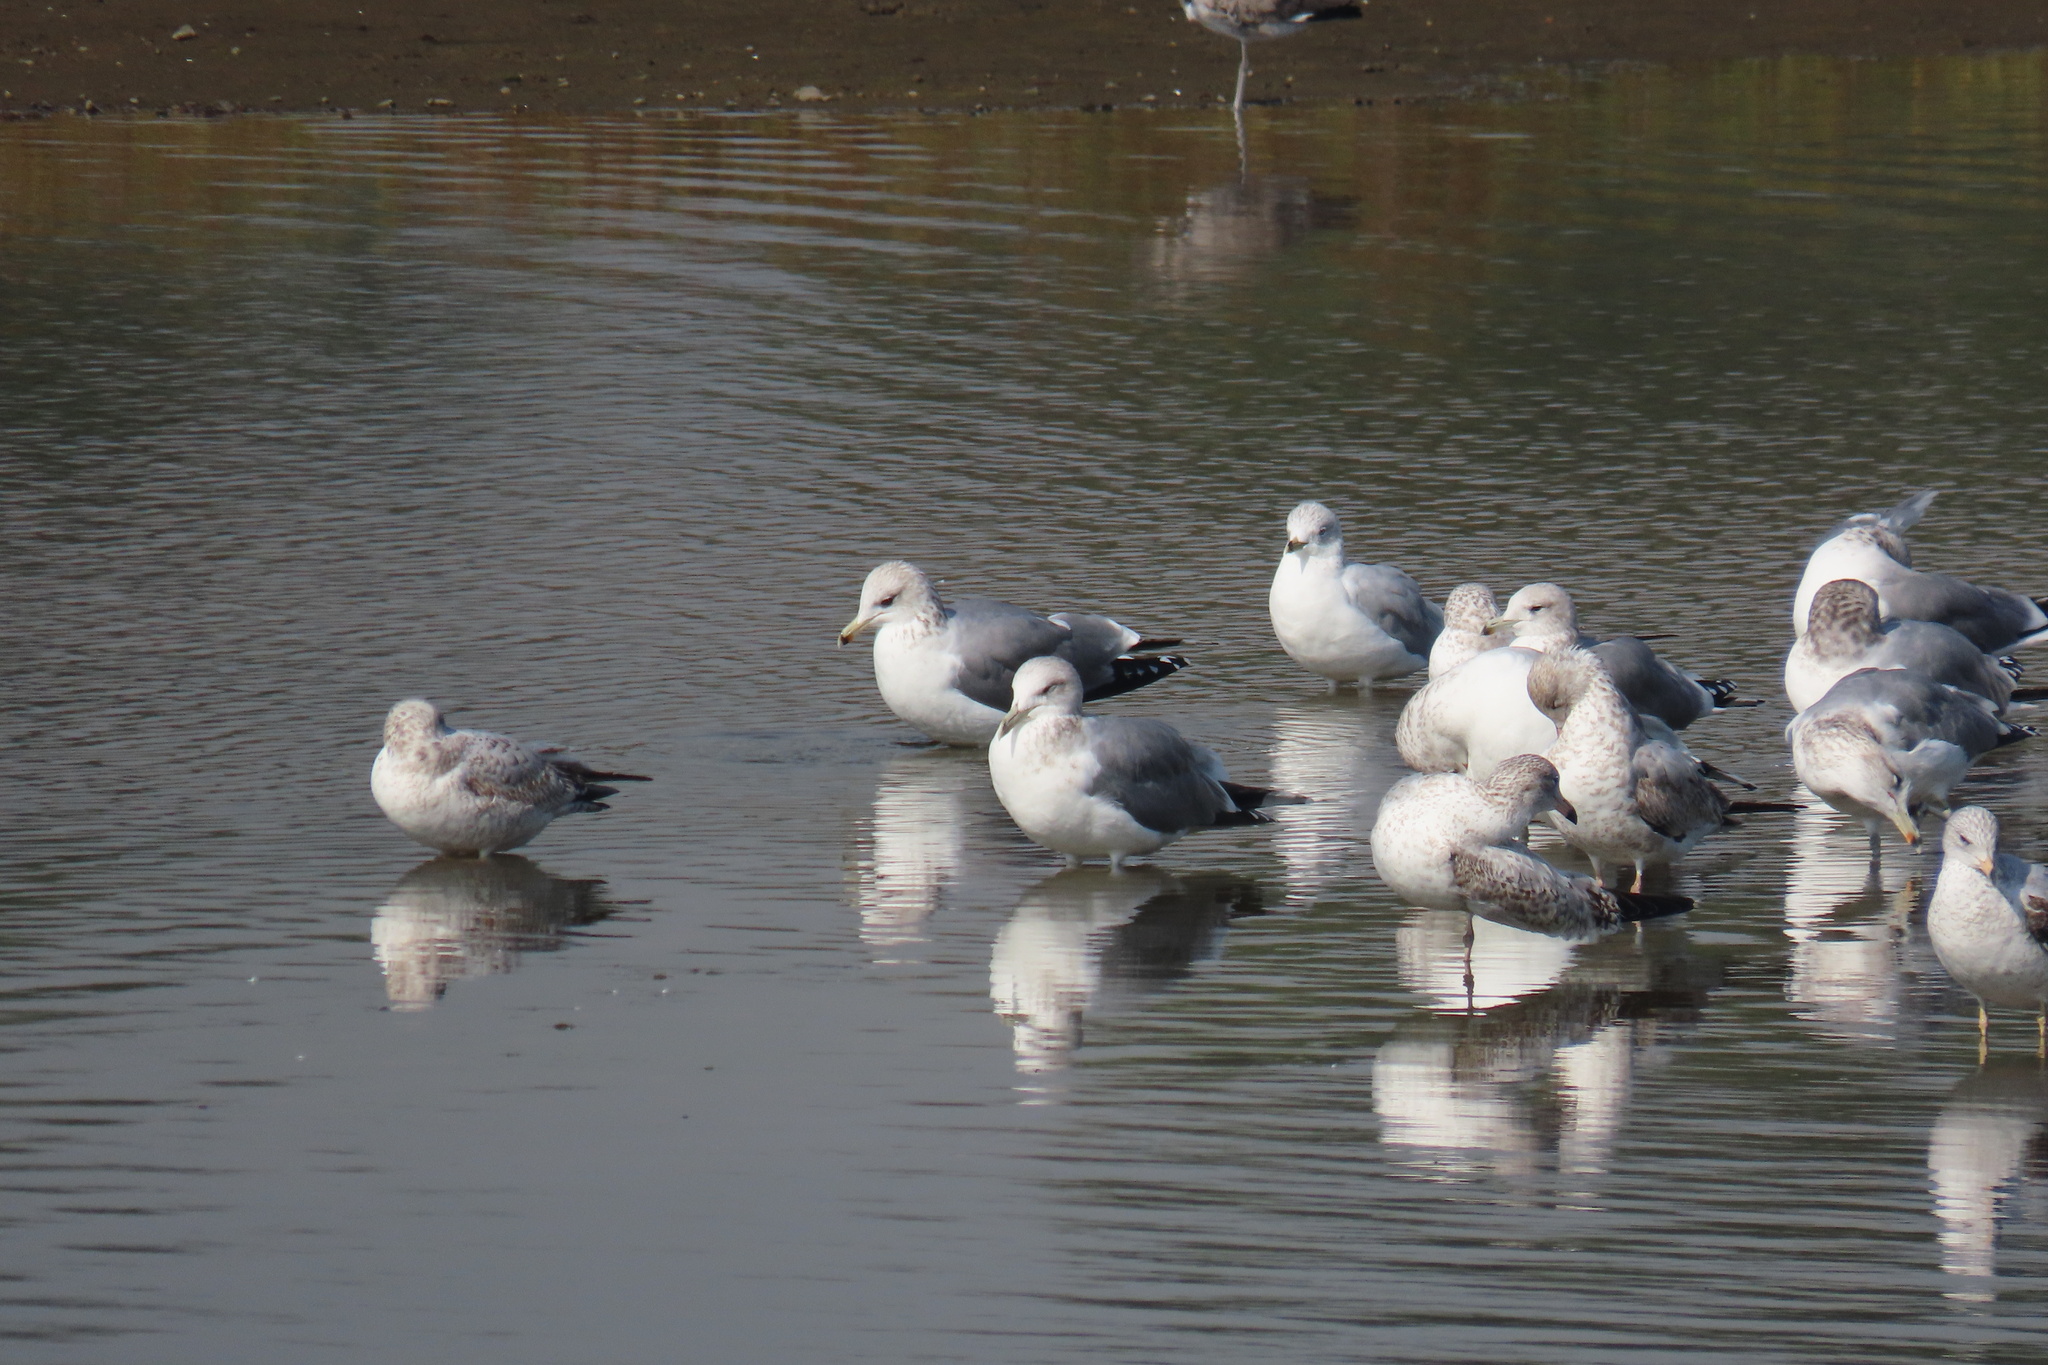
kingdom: Animalia
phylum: Chordata
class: Aves
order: Charadriiformes
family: Laridae
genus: Larus
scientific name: Larus californicus
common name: California gull
